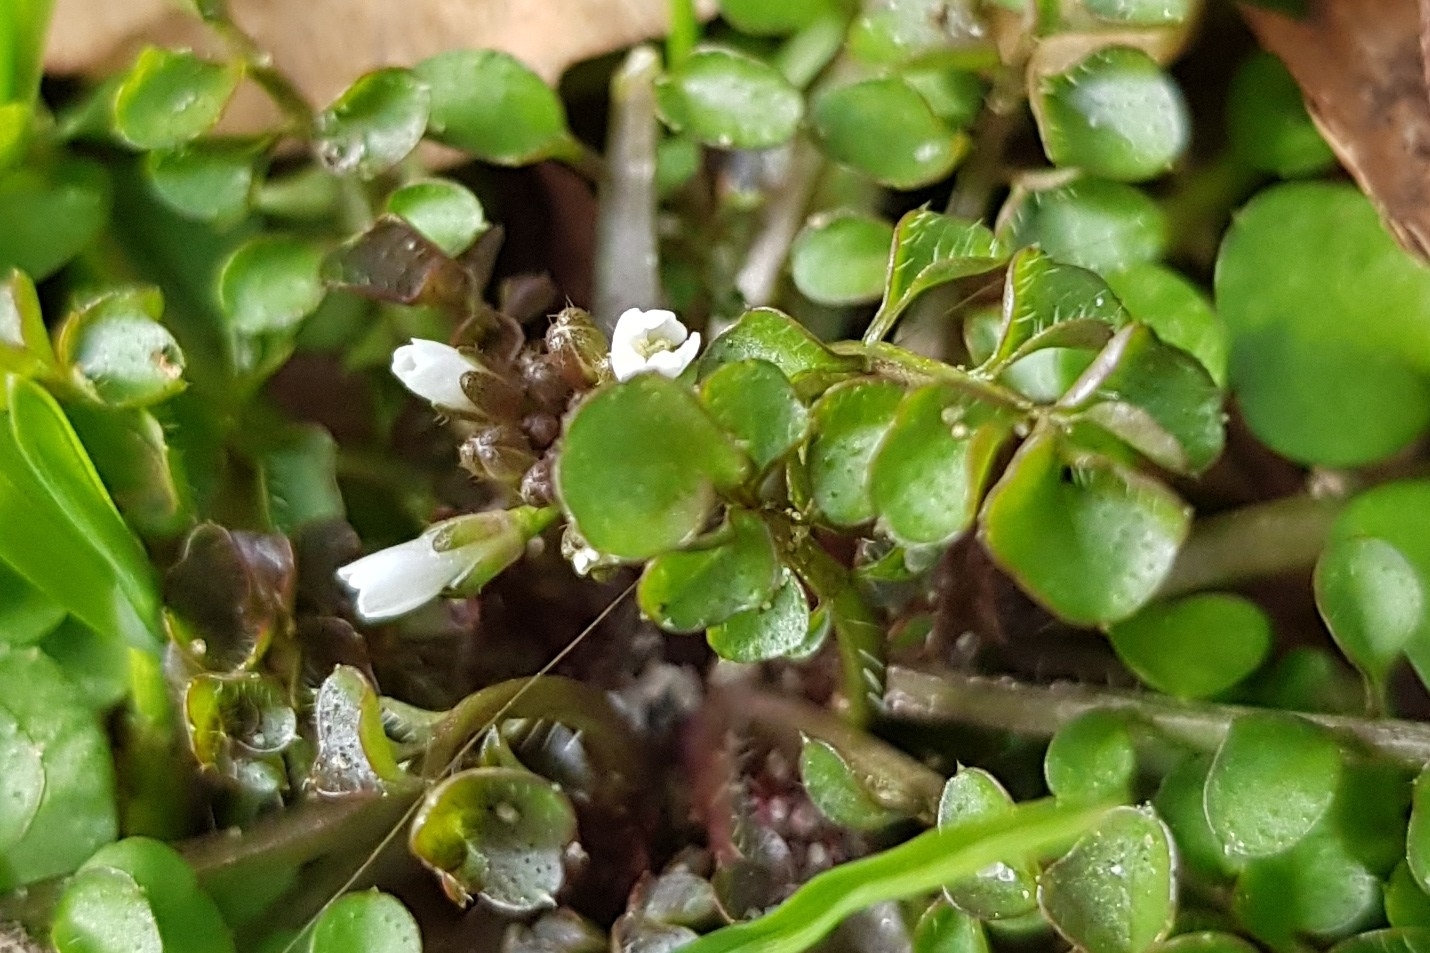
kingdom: Plantae
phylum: Tracheophyta
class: Magnoliopsida
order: Brassicales
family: Brassicaceae
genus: Cardamine
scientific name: Cardamine hirsuta
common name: Hairy bittercress
